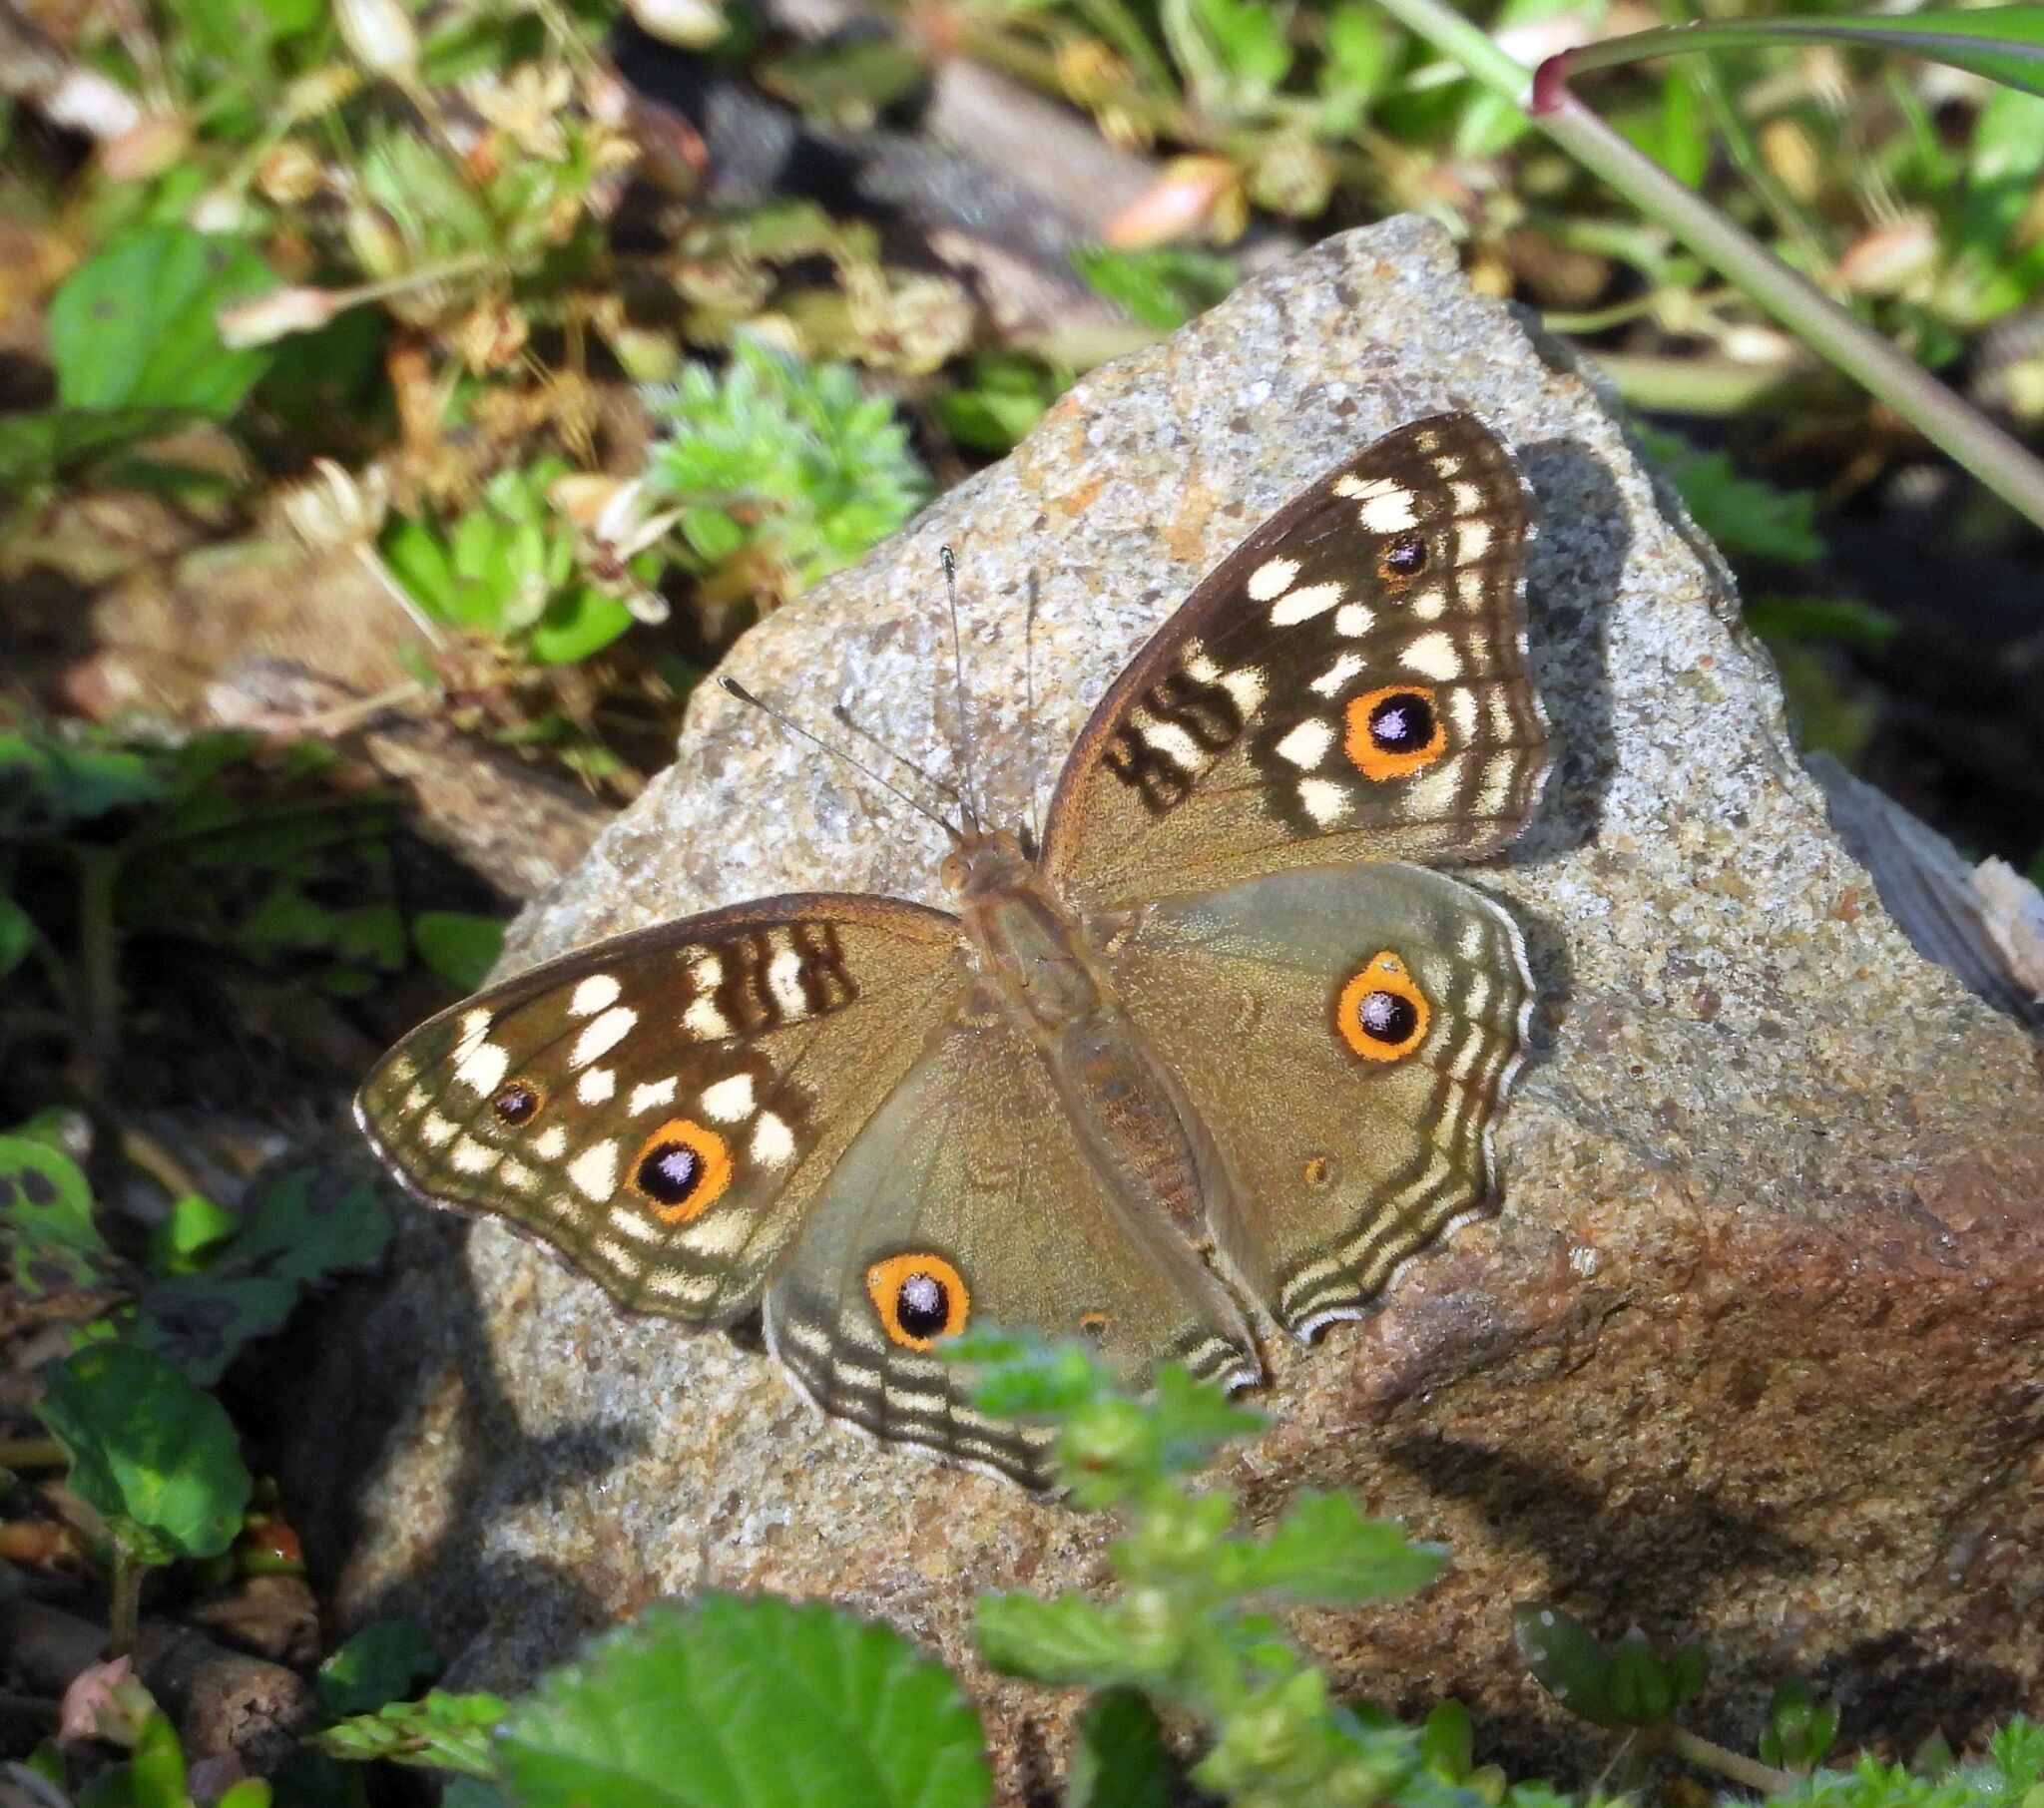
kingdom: Animalia
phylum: Arthropoda
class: Insecta
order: Lepidoptera
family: Nymphalidae
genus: Junonia
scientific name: Junonia lemonias
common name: Lemon pansy
